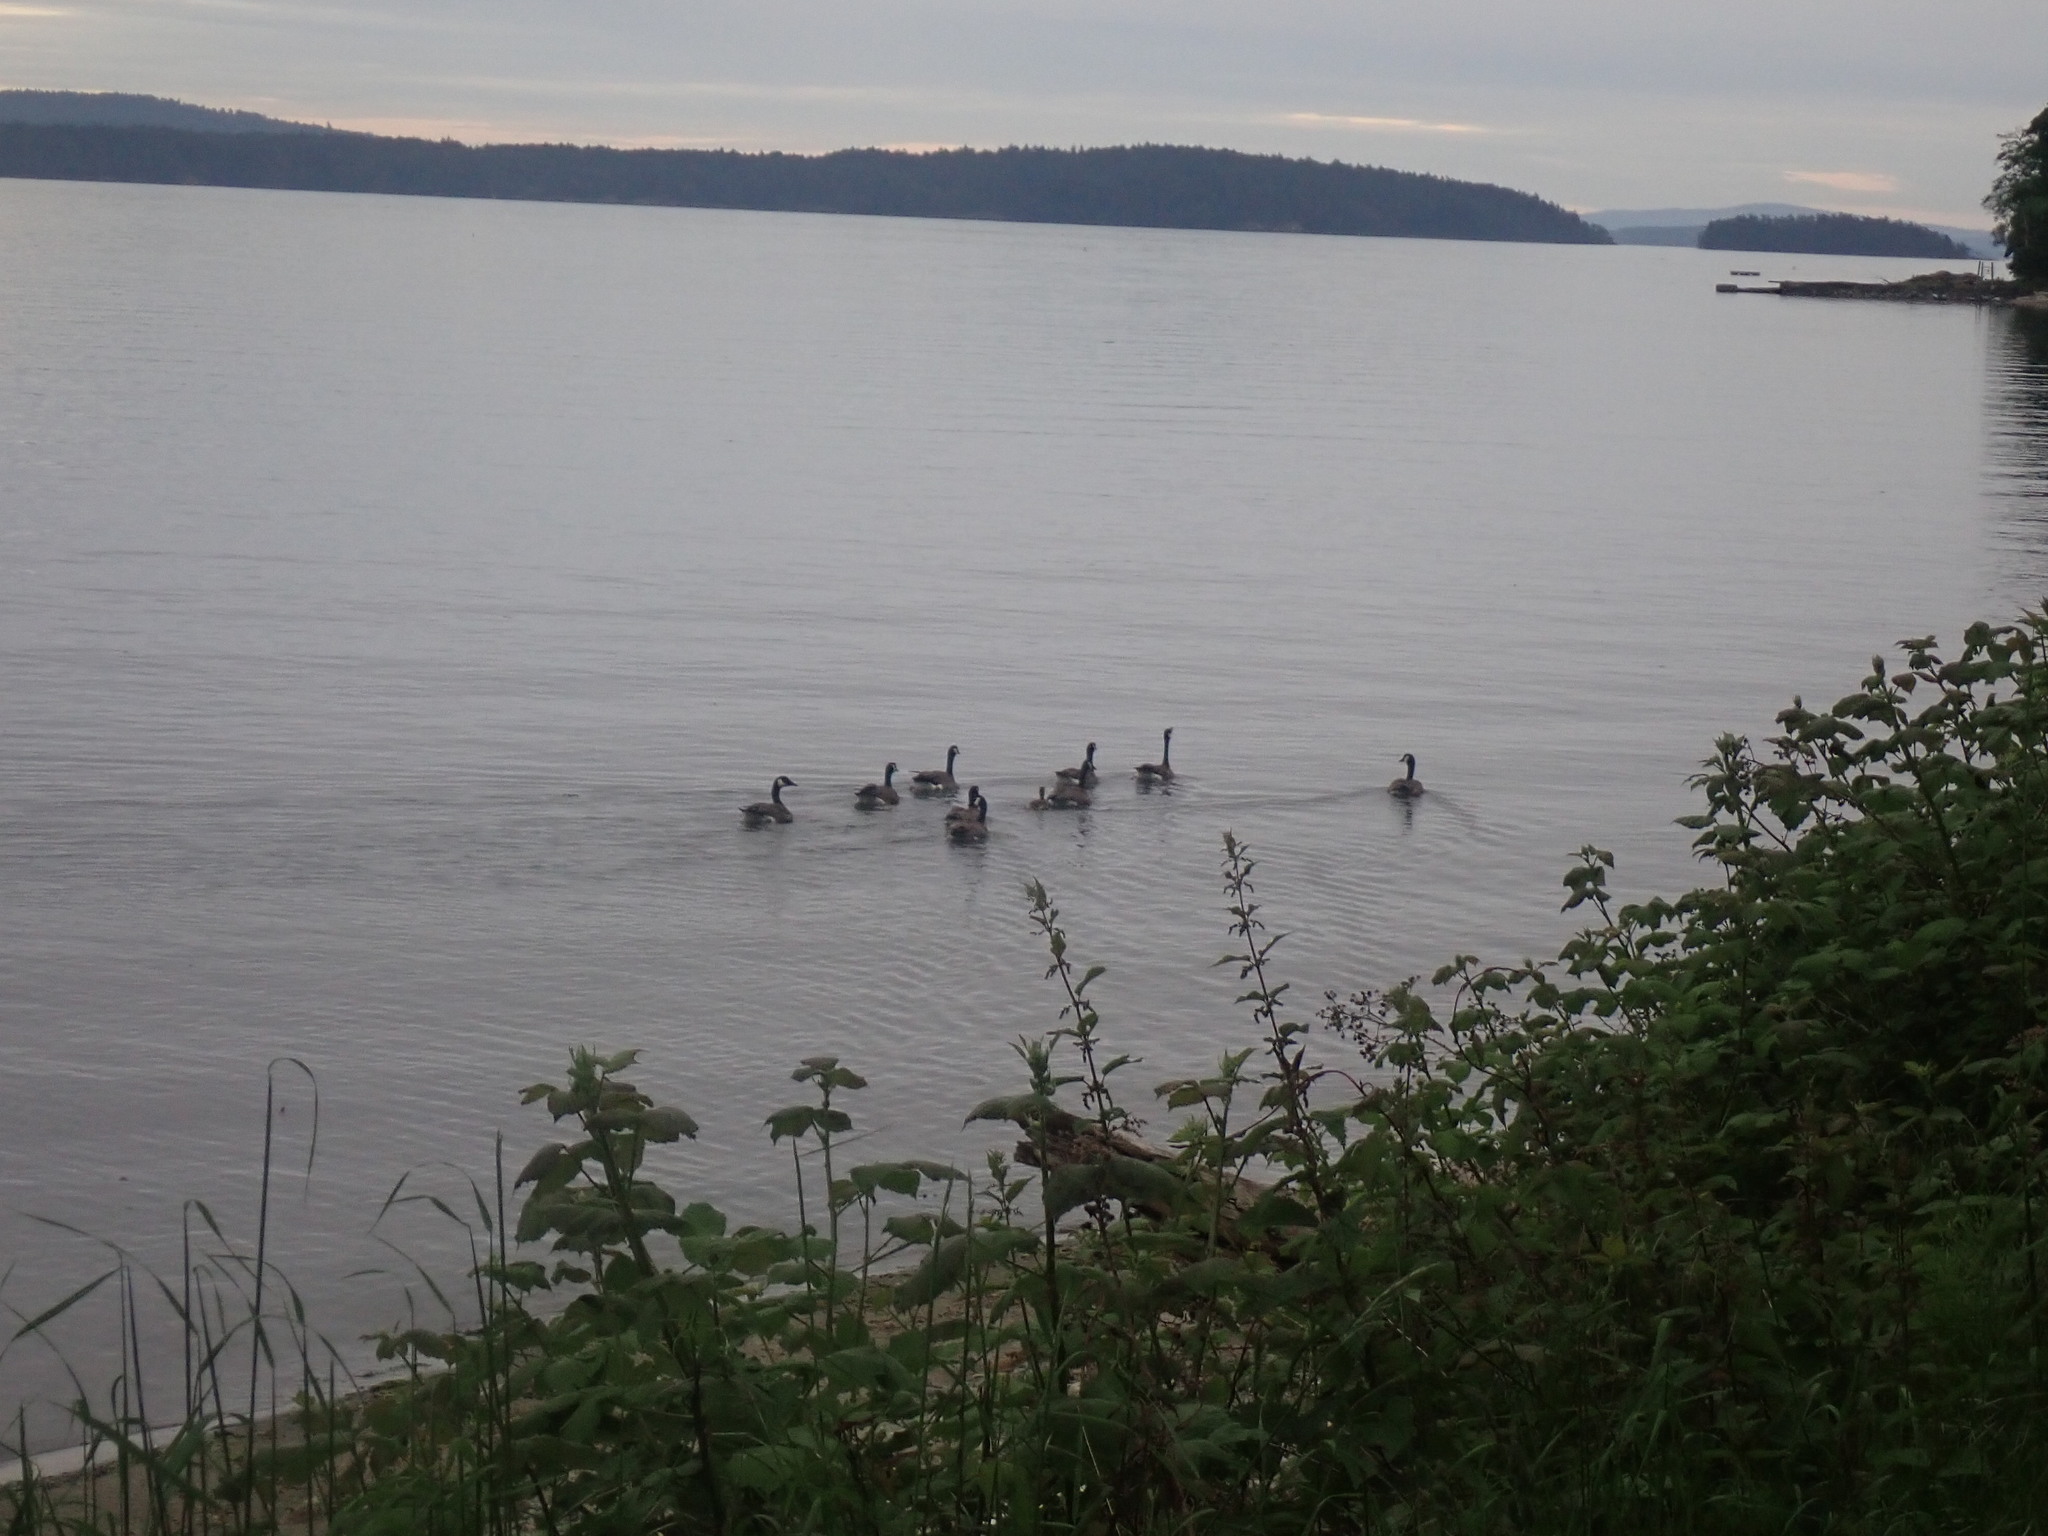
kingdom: Animalia
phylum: Chordata
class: Aves
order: Anseriformes
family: Anatidae
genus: Branta
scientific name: Branta canadensis
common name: Canada goose
